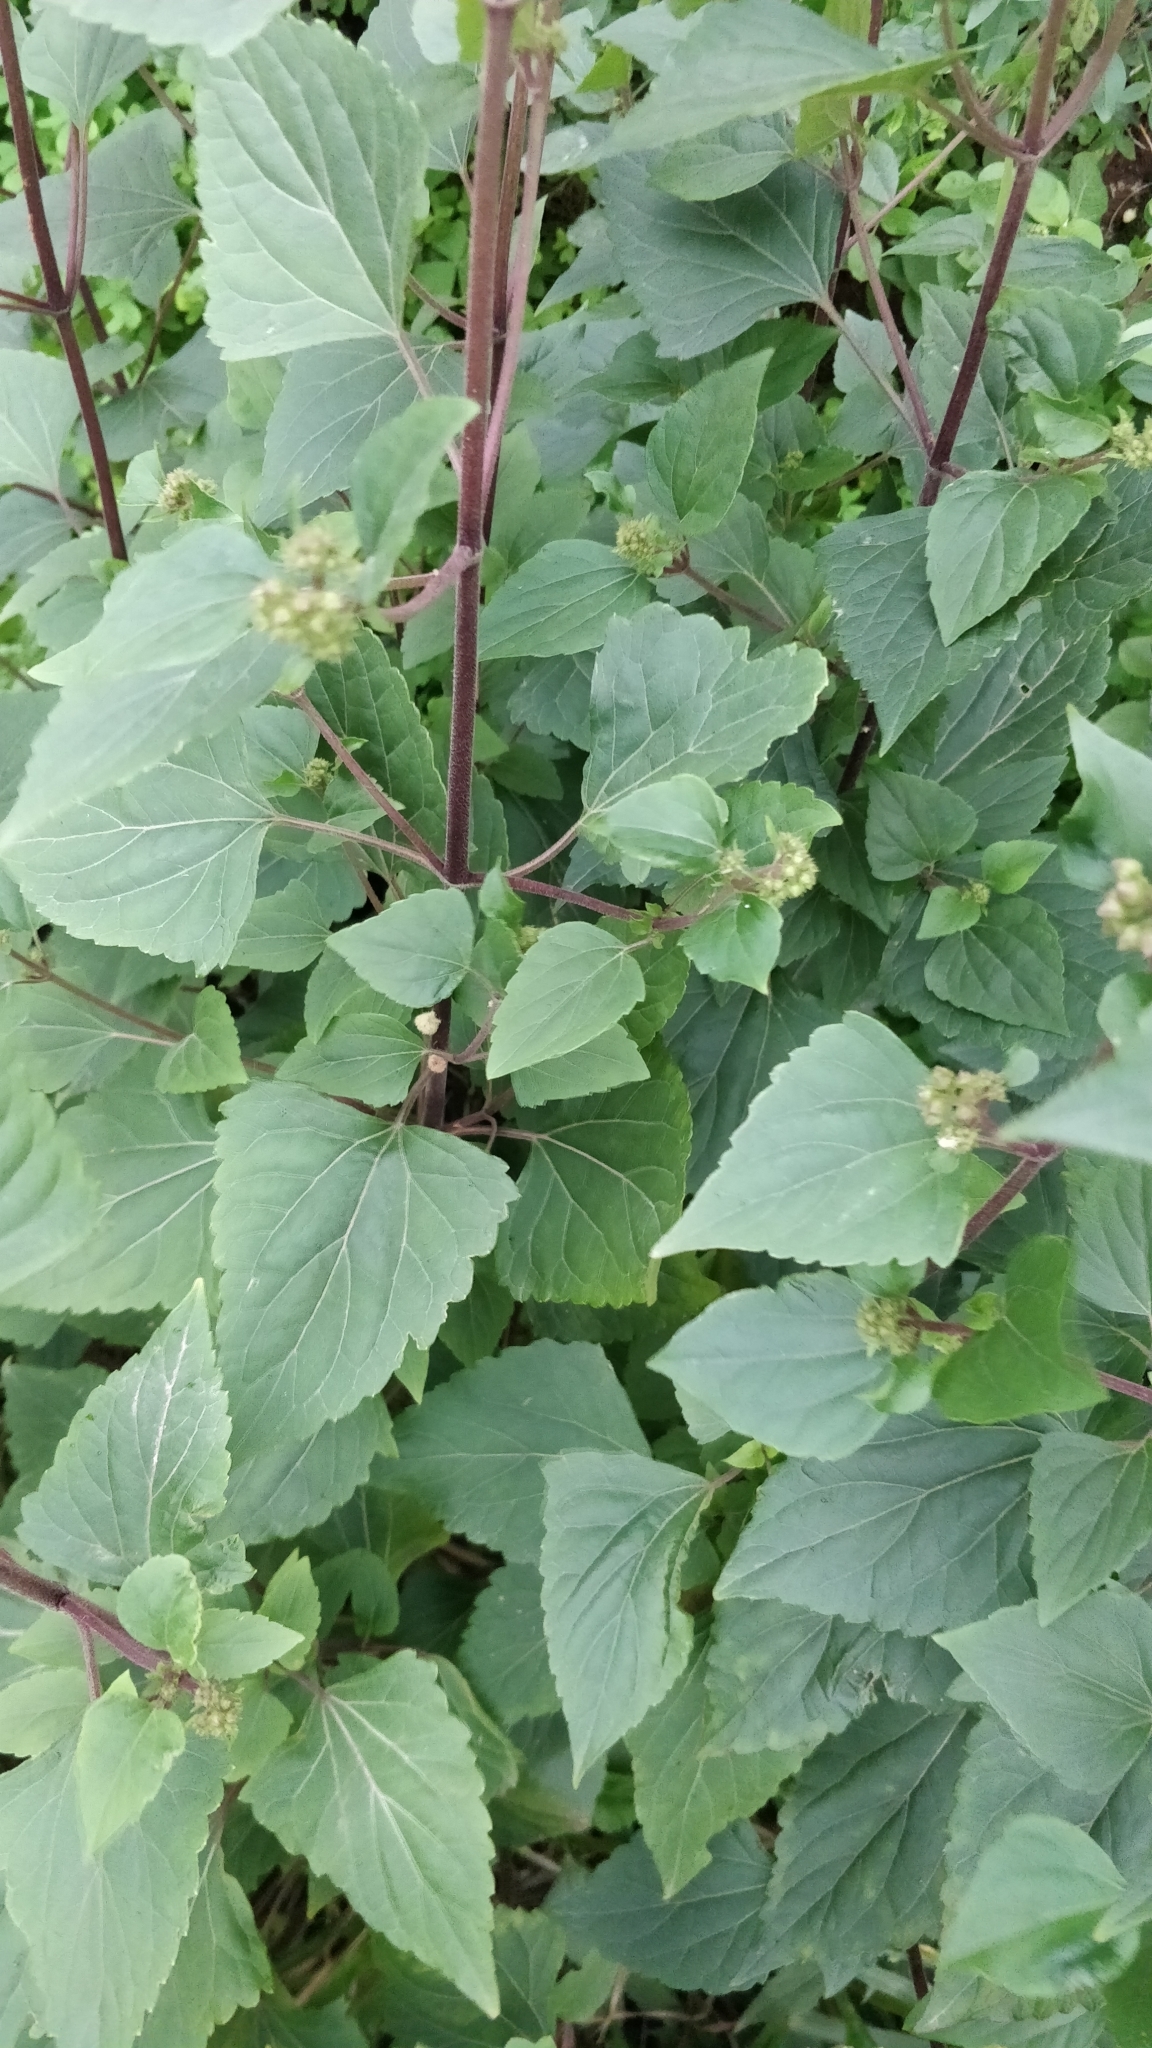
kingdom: Plantae
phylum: Tracheophyta
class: Magnoliopsida
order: Asterales
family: Asteraceae
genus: Ageratina
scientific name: Ageratina adenophora
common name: Sticky snakeroot
